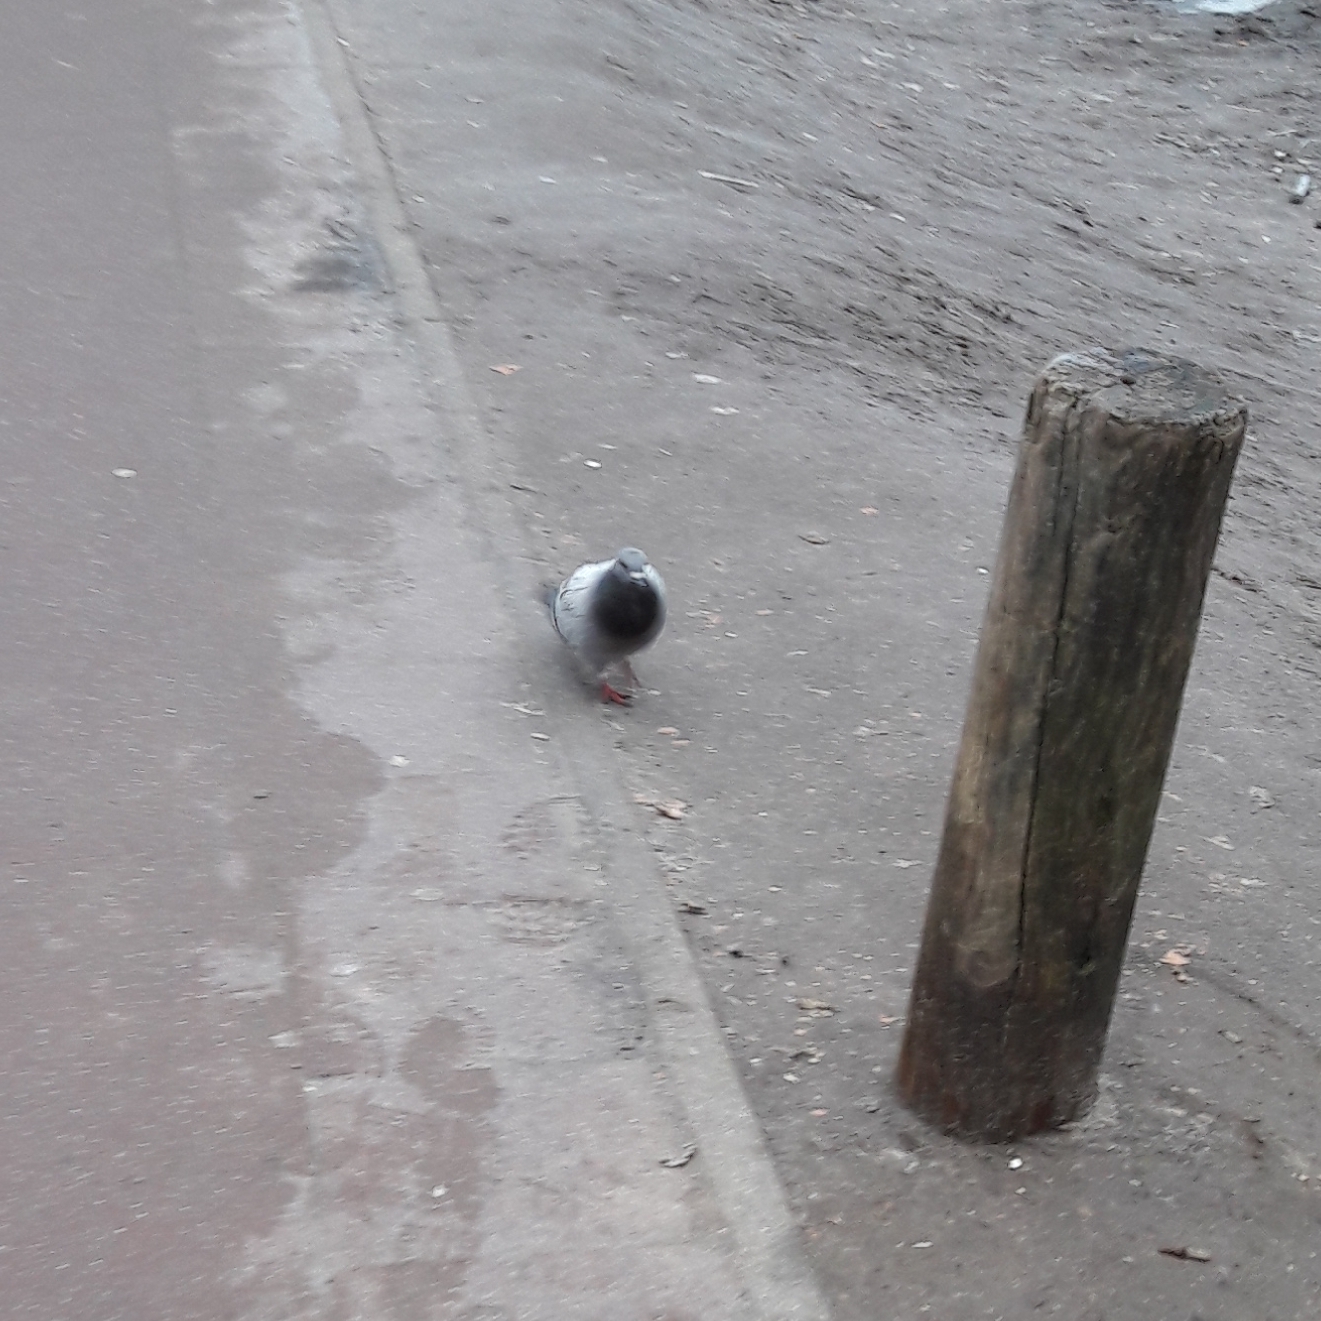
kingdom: Animalia
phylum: Chordata
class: Aves
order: Columbiformes
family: Columbidae
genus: Columba
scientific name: Columba livia
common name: Rock pigeon
